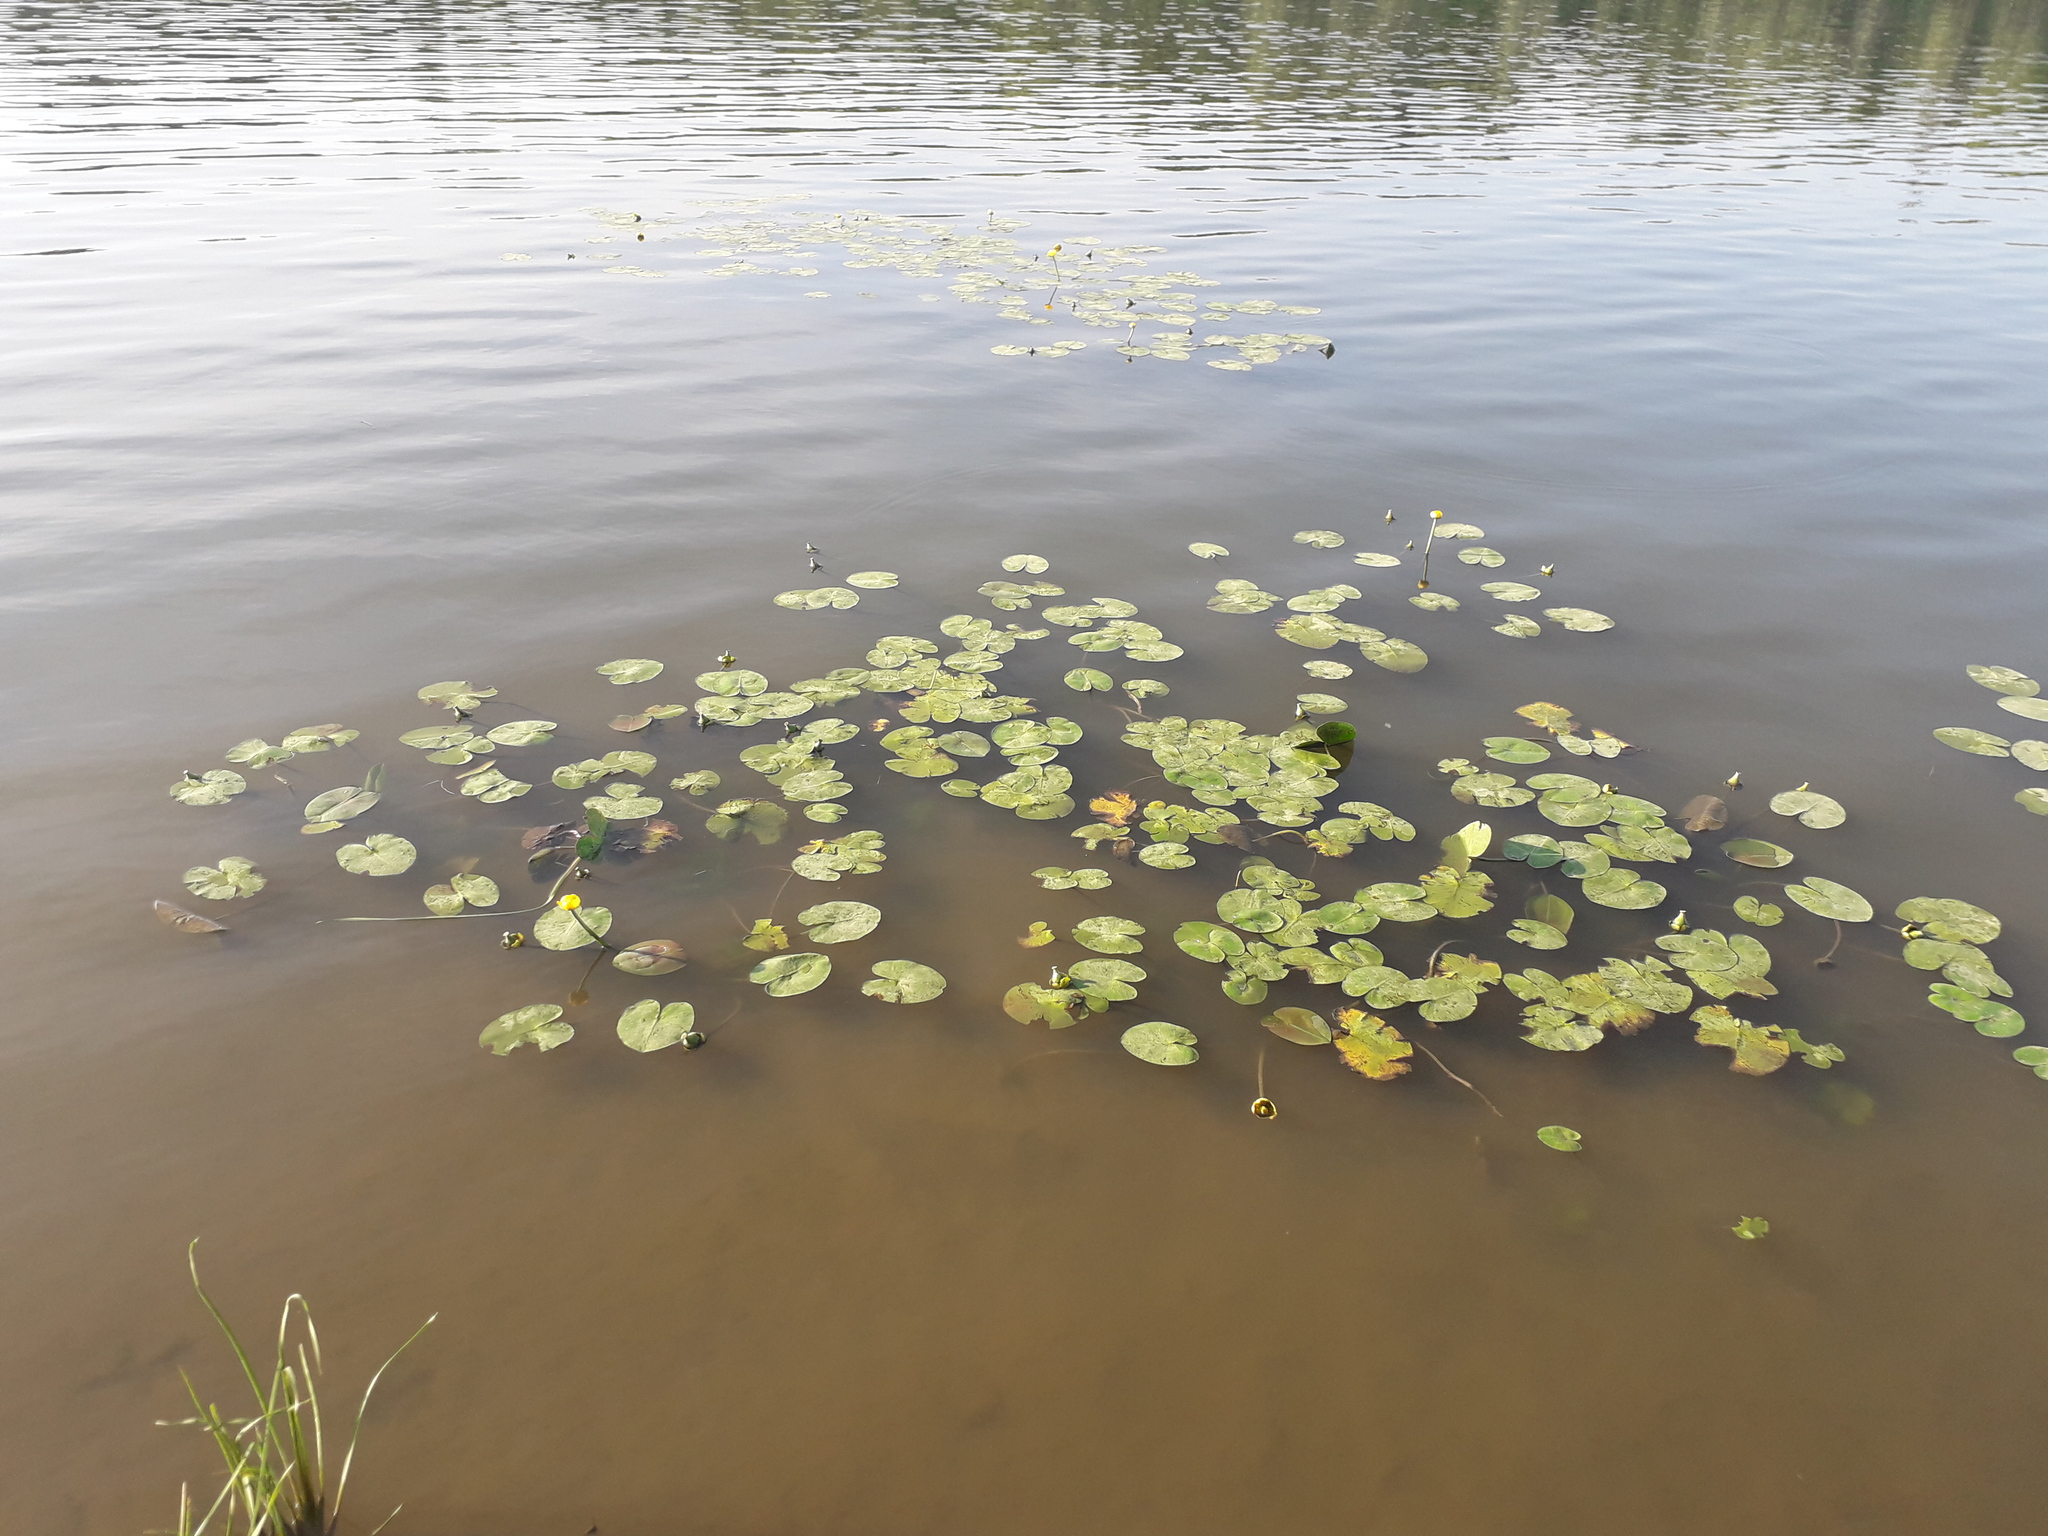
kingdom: Plantae
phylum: Tracheophyta
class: Magnoliopsida
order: Nymphaeales
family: Nymphaeaceae
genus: Nuphar
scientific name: Nuphar lutea
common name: Yellow water-lily
